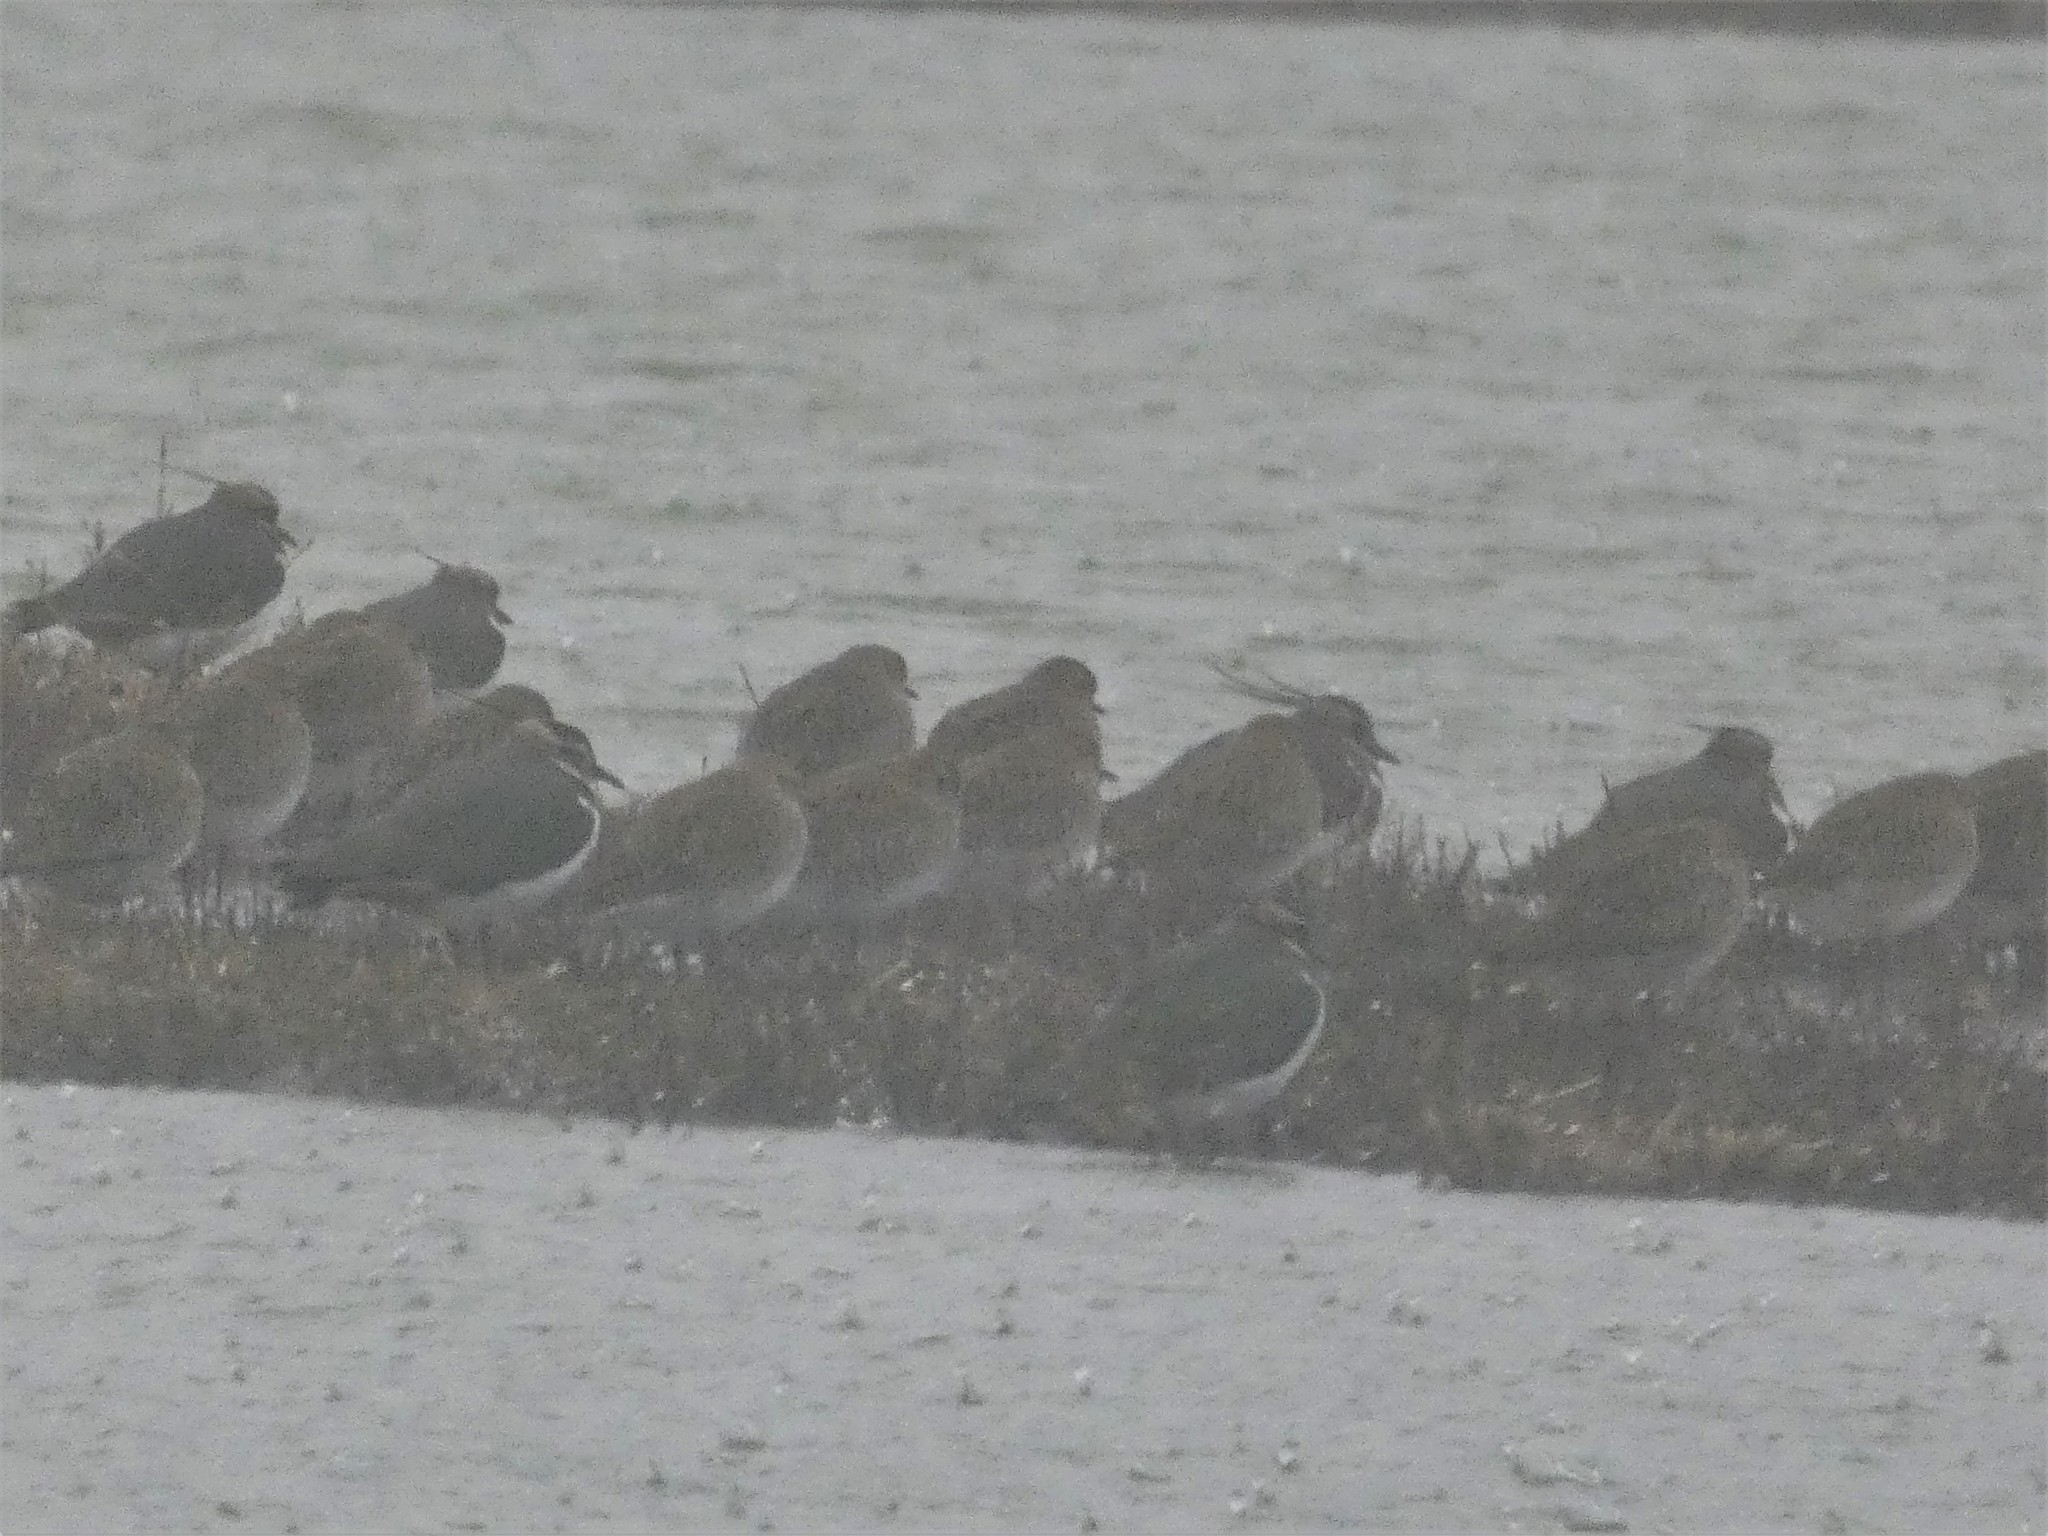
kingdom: Animalia
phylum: Chordata
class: Aves
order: Charadriiformes
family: Charadriidae
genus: Vanellus
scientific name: Vanellus vanellus
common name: Northern lapwing
